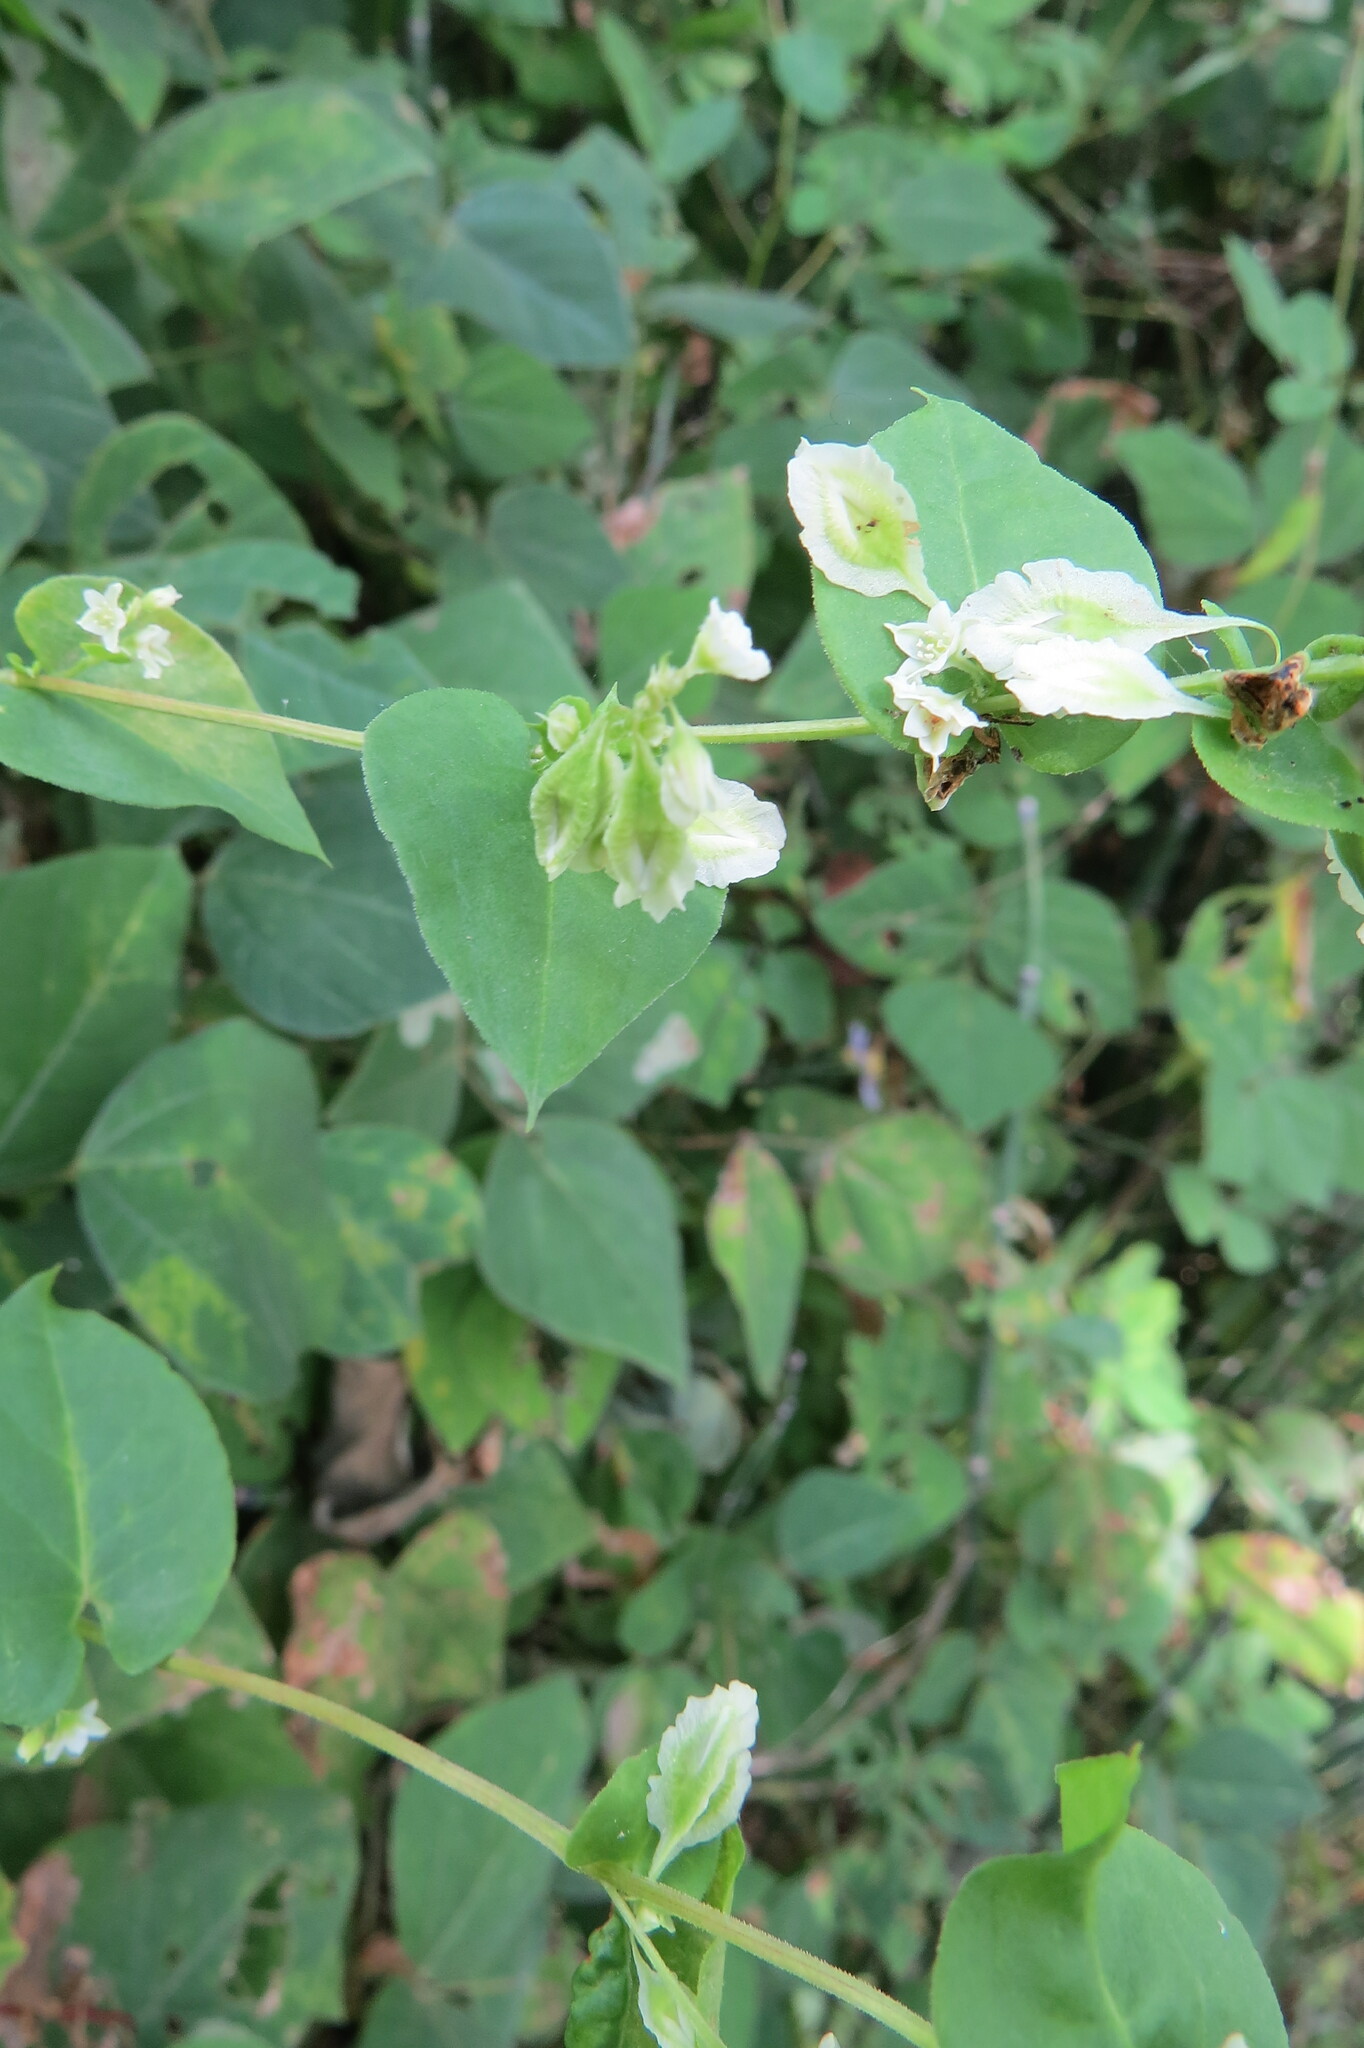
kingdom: Plantae
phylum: Tracheophyta
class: Magnoliopsida
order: Caryophyllales
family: Polygonaceae
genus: Fallopia
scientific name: Fallopia scandens
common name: Climbing false buckwheat
